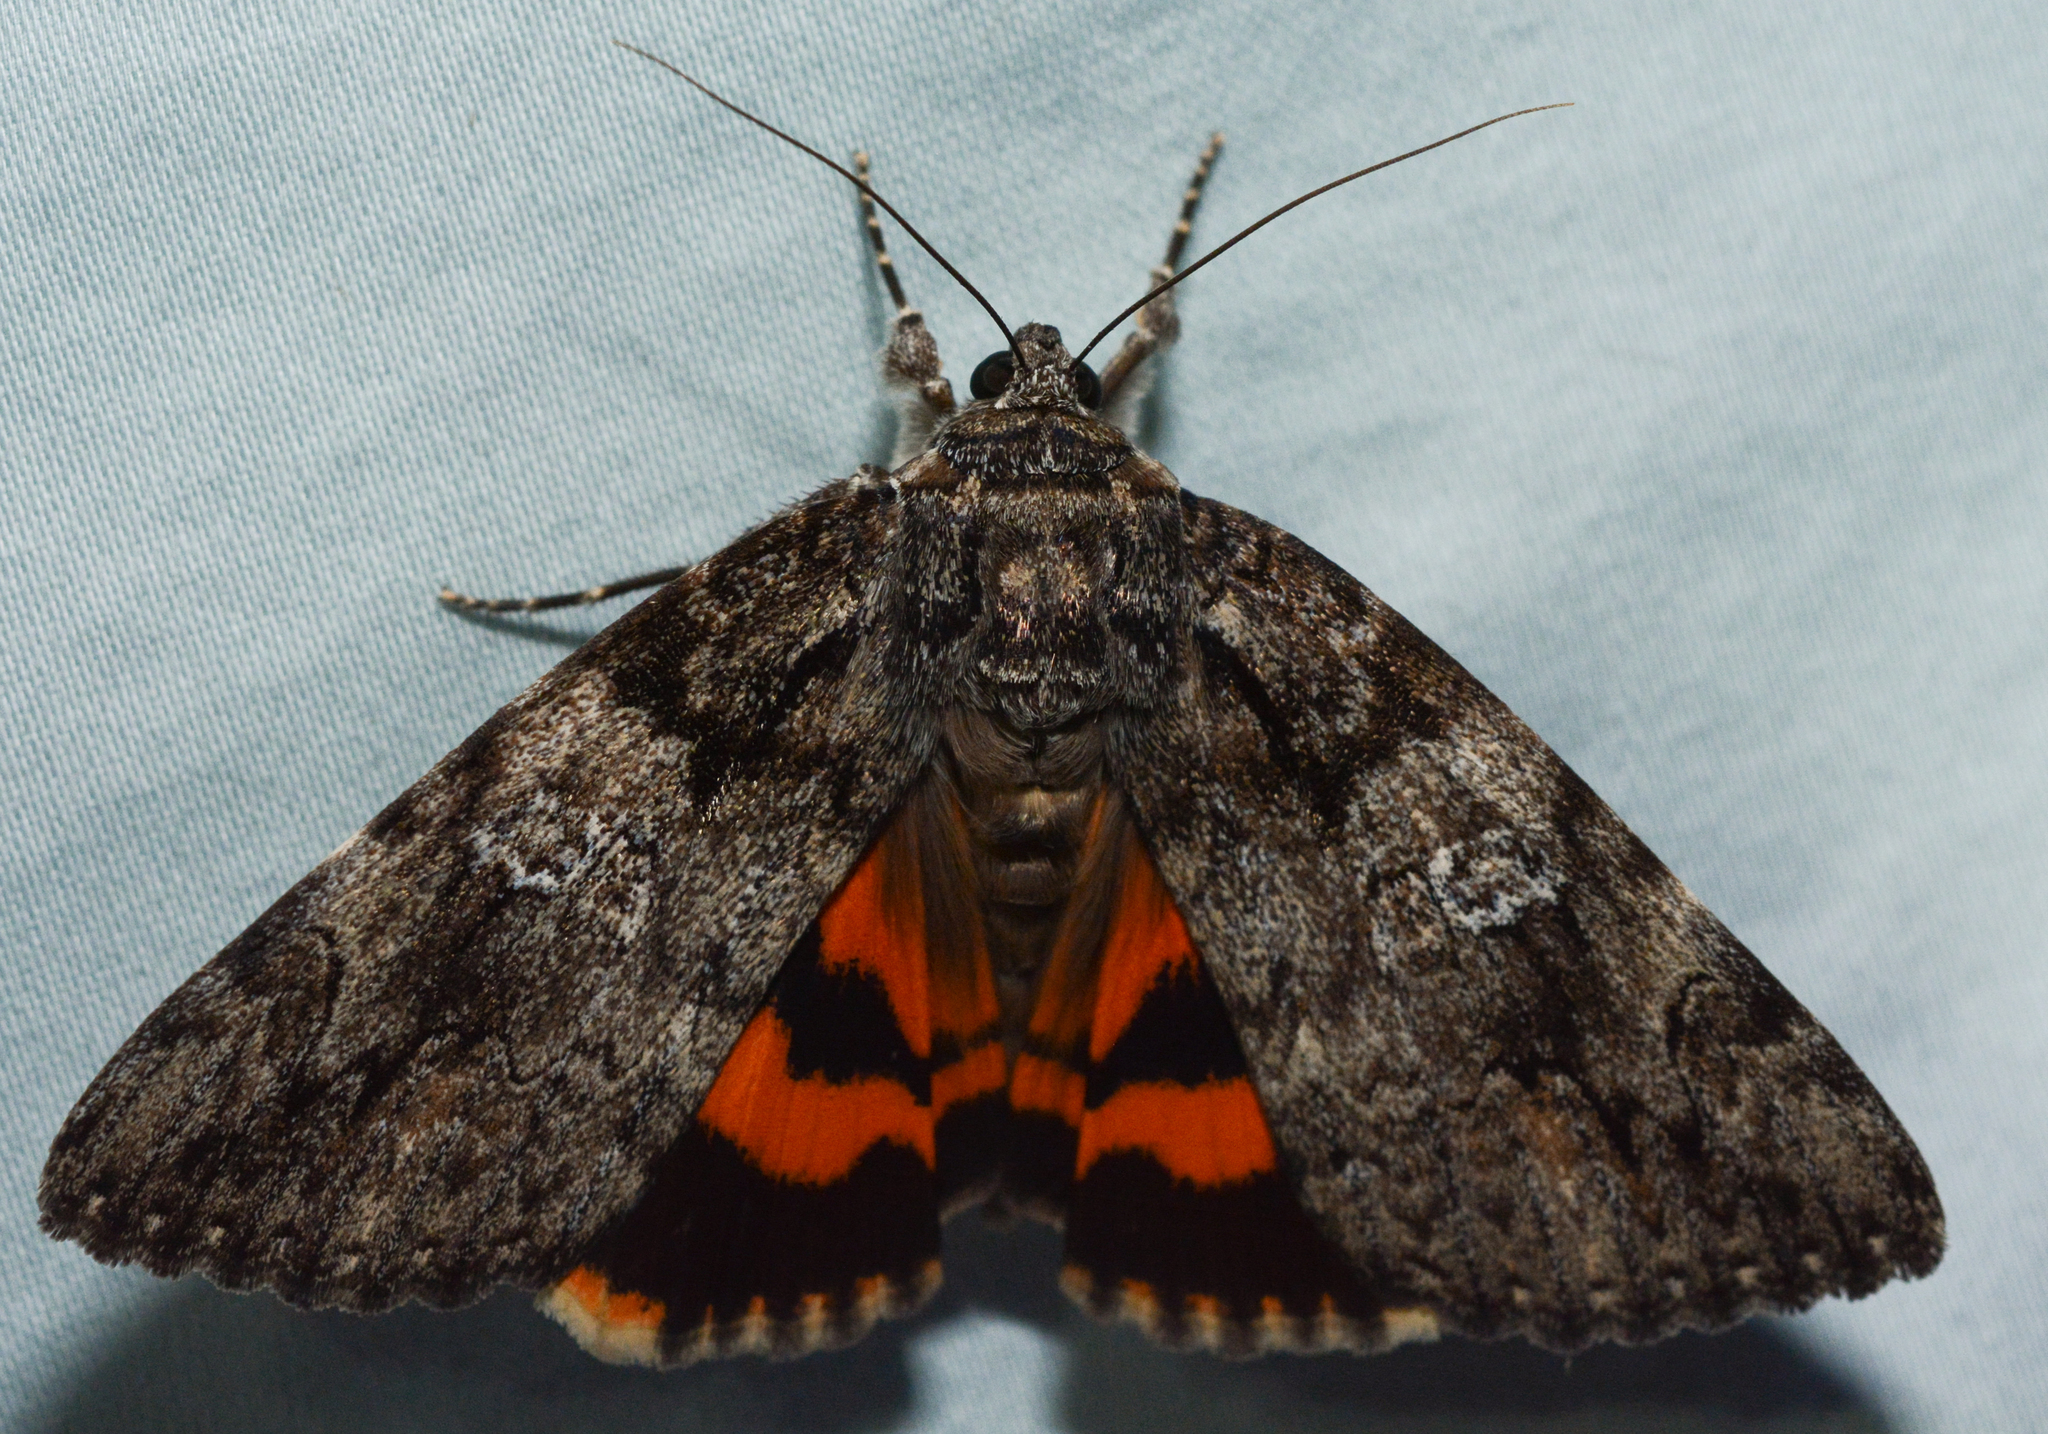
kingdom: Animalia
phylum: Arthropoda
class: Insecta
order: Lepidoptera
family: Erebidae
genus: Catocala
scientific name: Catocala ilia
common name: Ilia underwing
